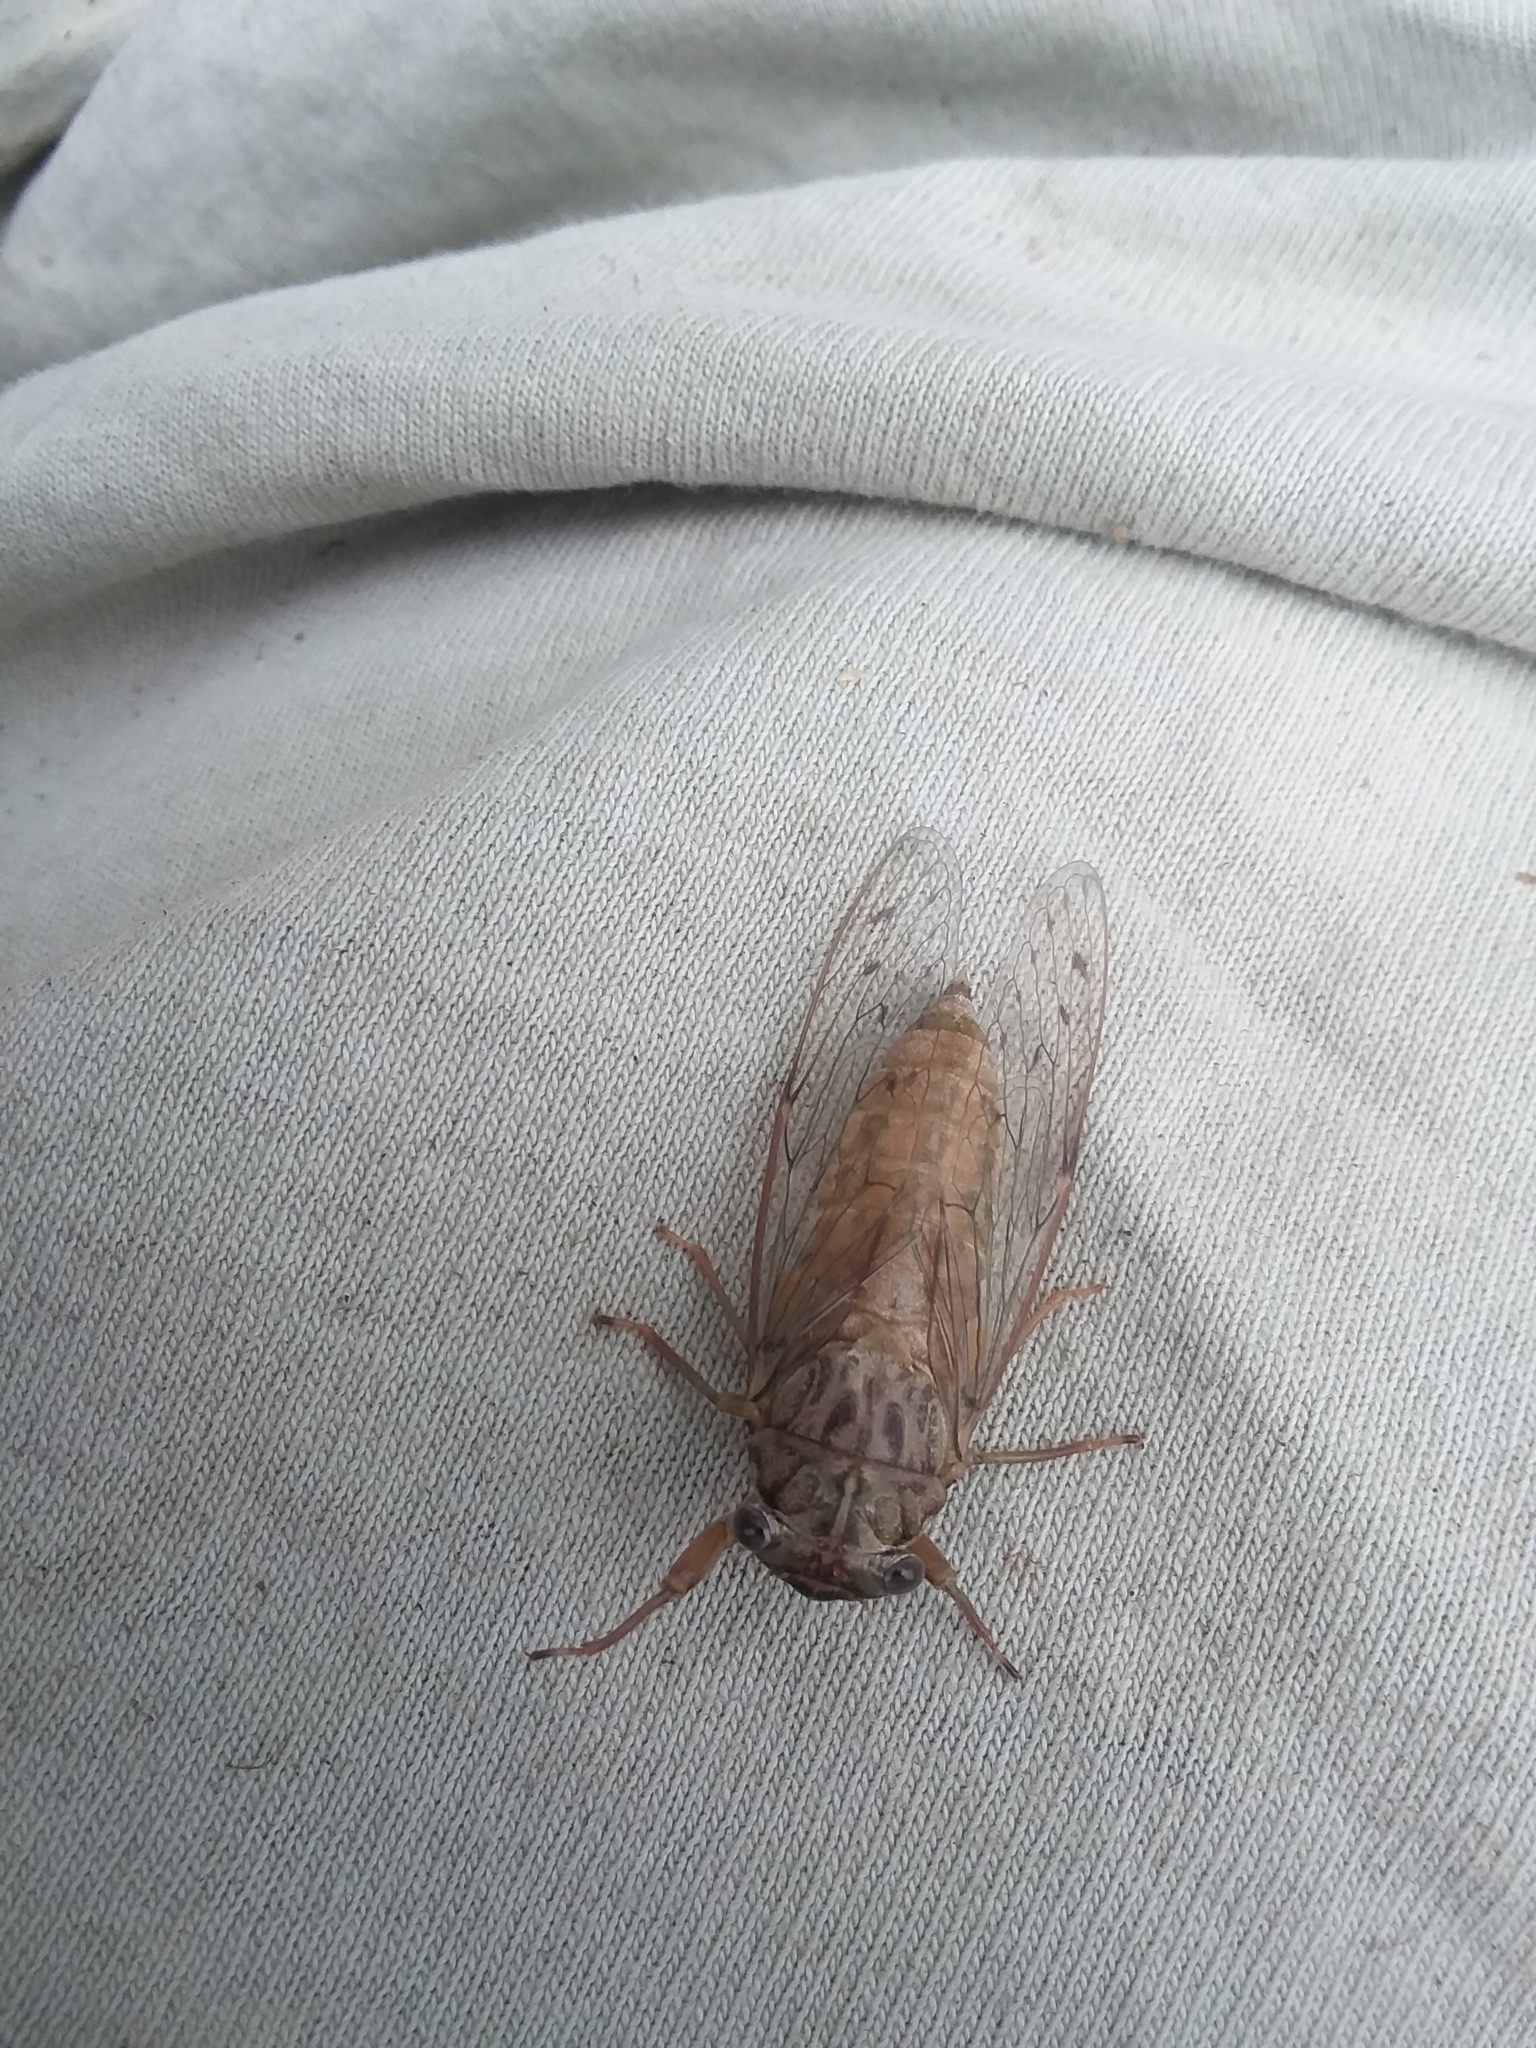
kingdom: Animalia
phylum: Arthropoda
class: Insecta
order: Hemiptera
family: Cicadidae
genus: Neocicada
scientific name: Neocicada hieroglyphica
